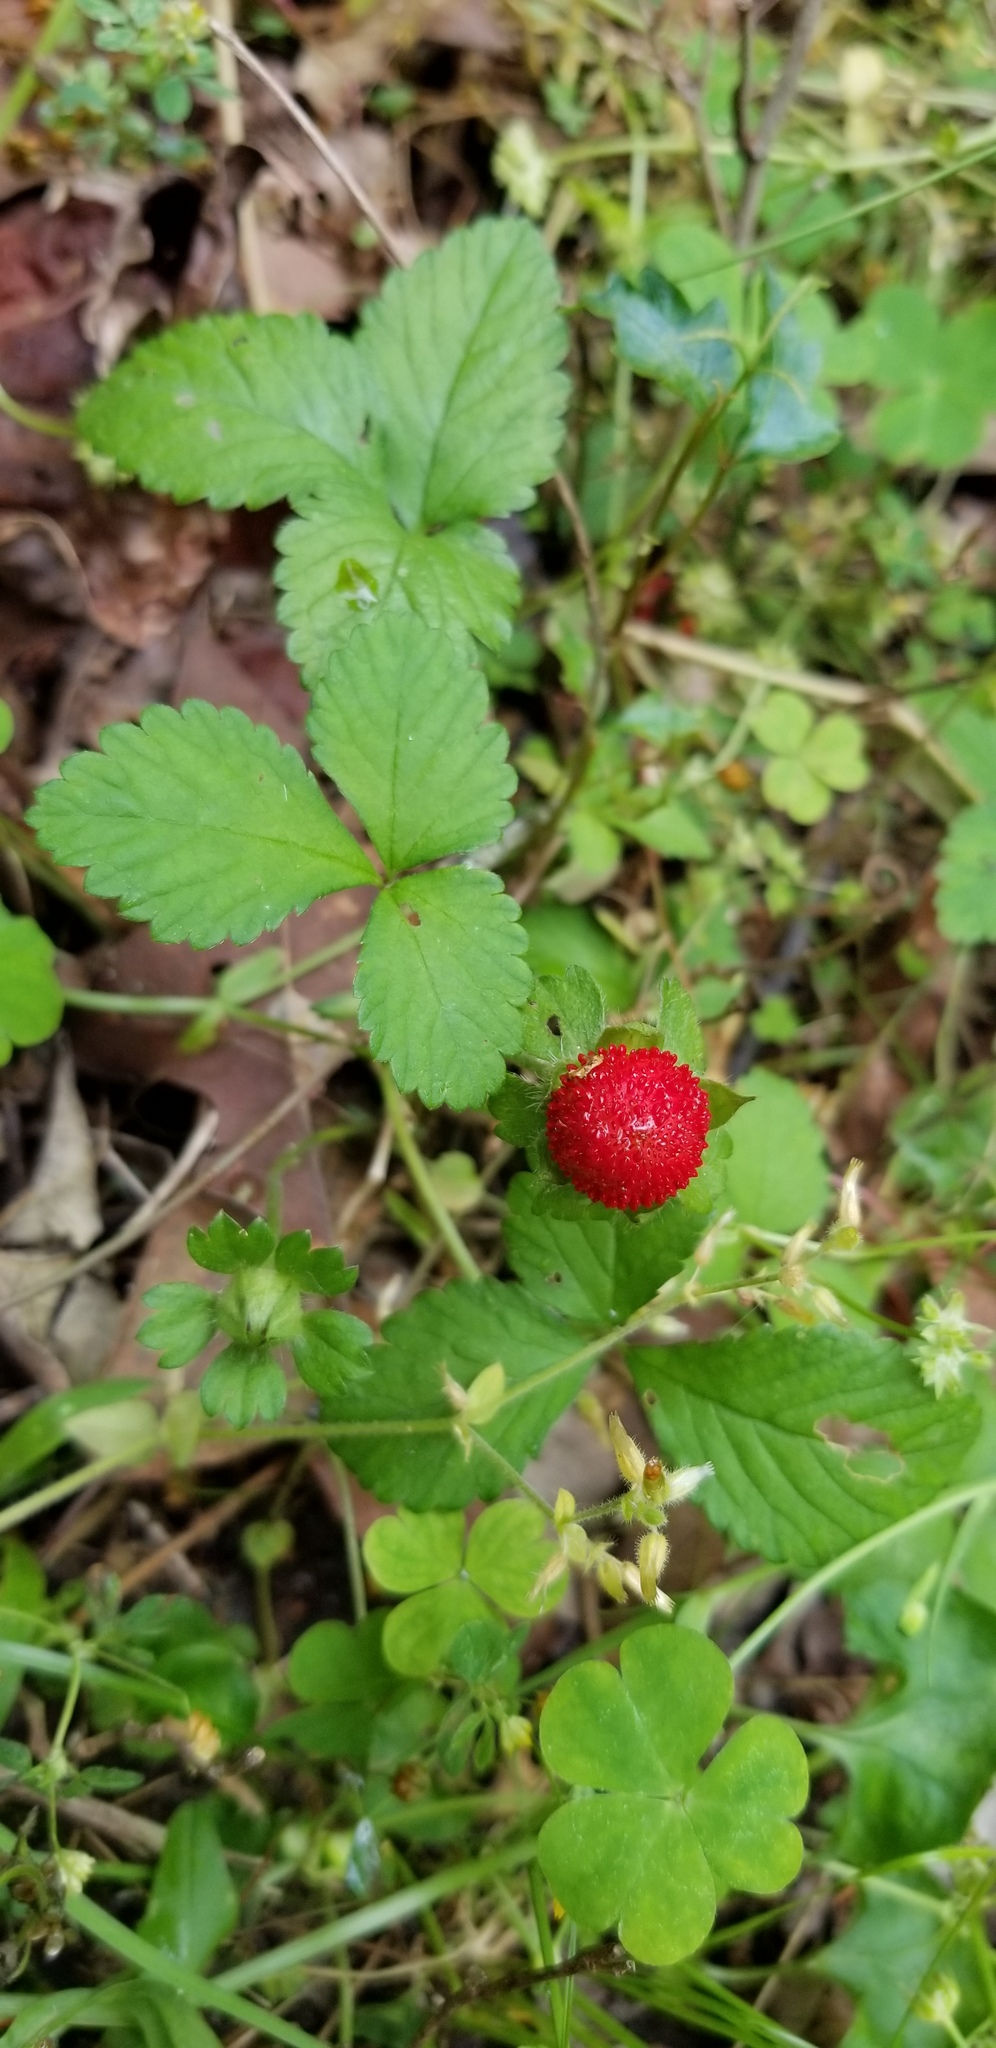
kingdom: Plantae
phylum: Tracheophyta
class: Magnoliopsida
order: Rosales
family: Rosaceae
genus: Potentilla
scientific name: Potentilla indica
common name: Yellow-flowered strawberry
